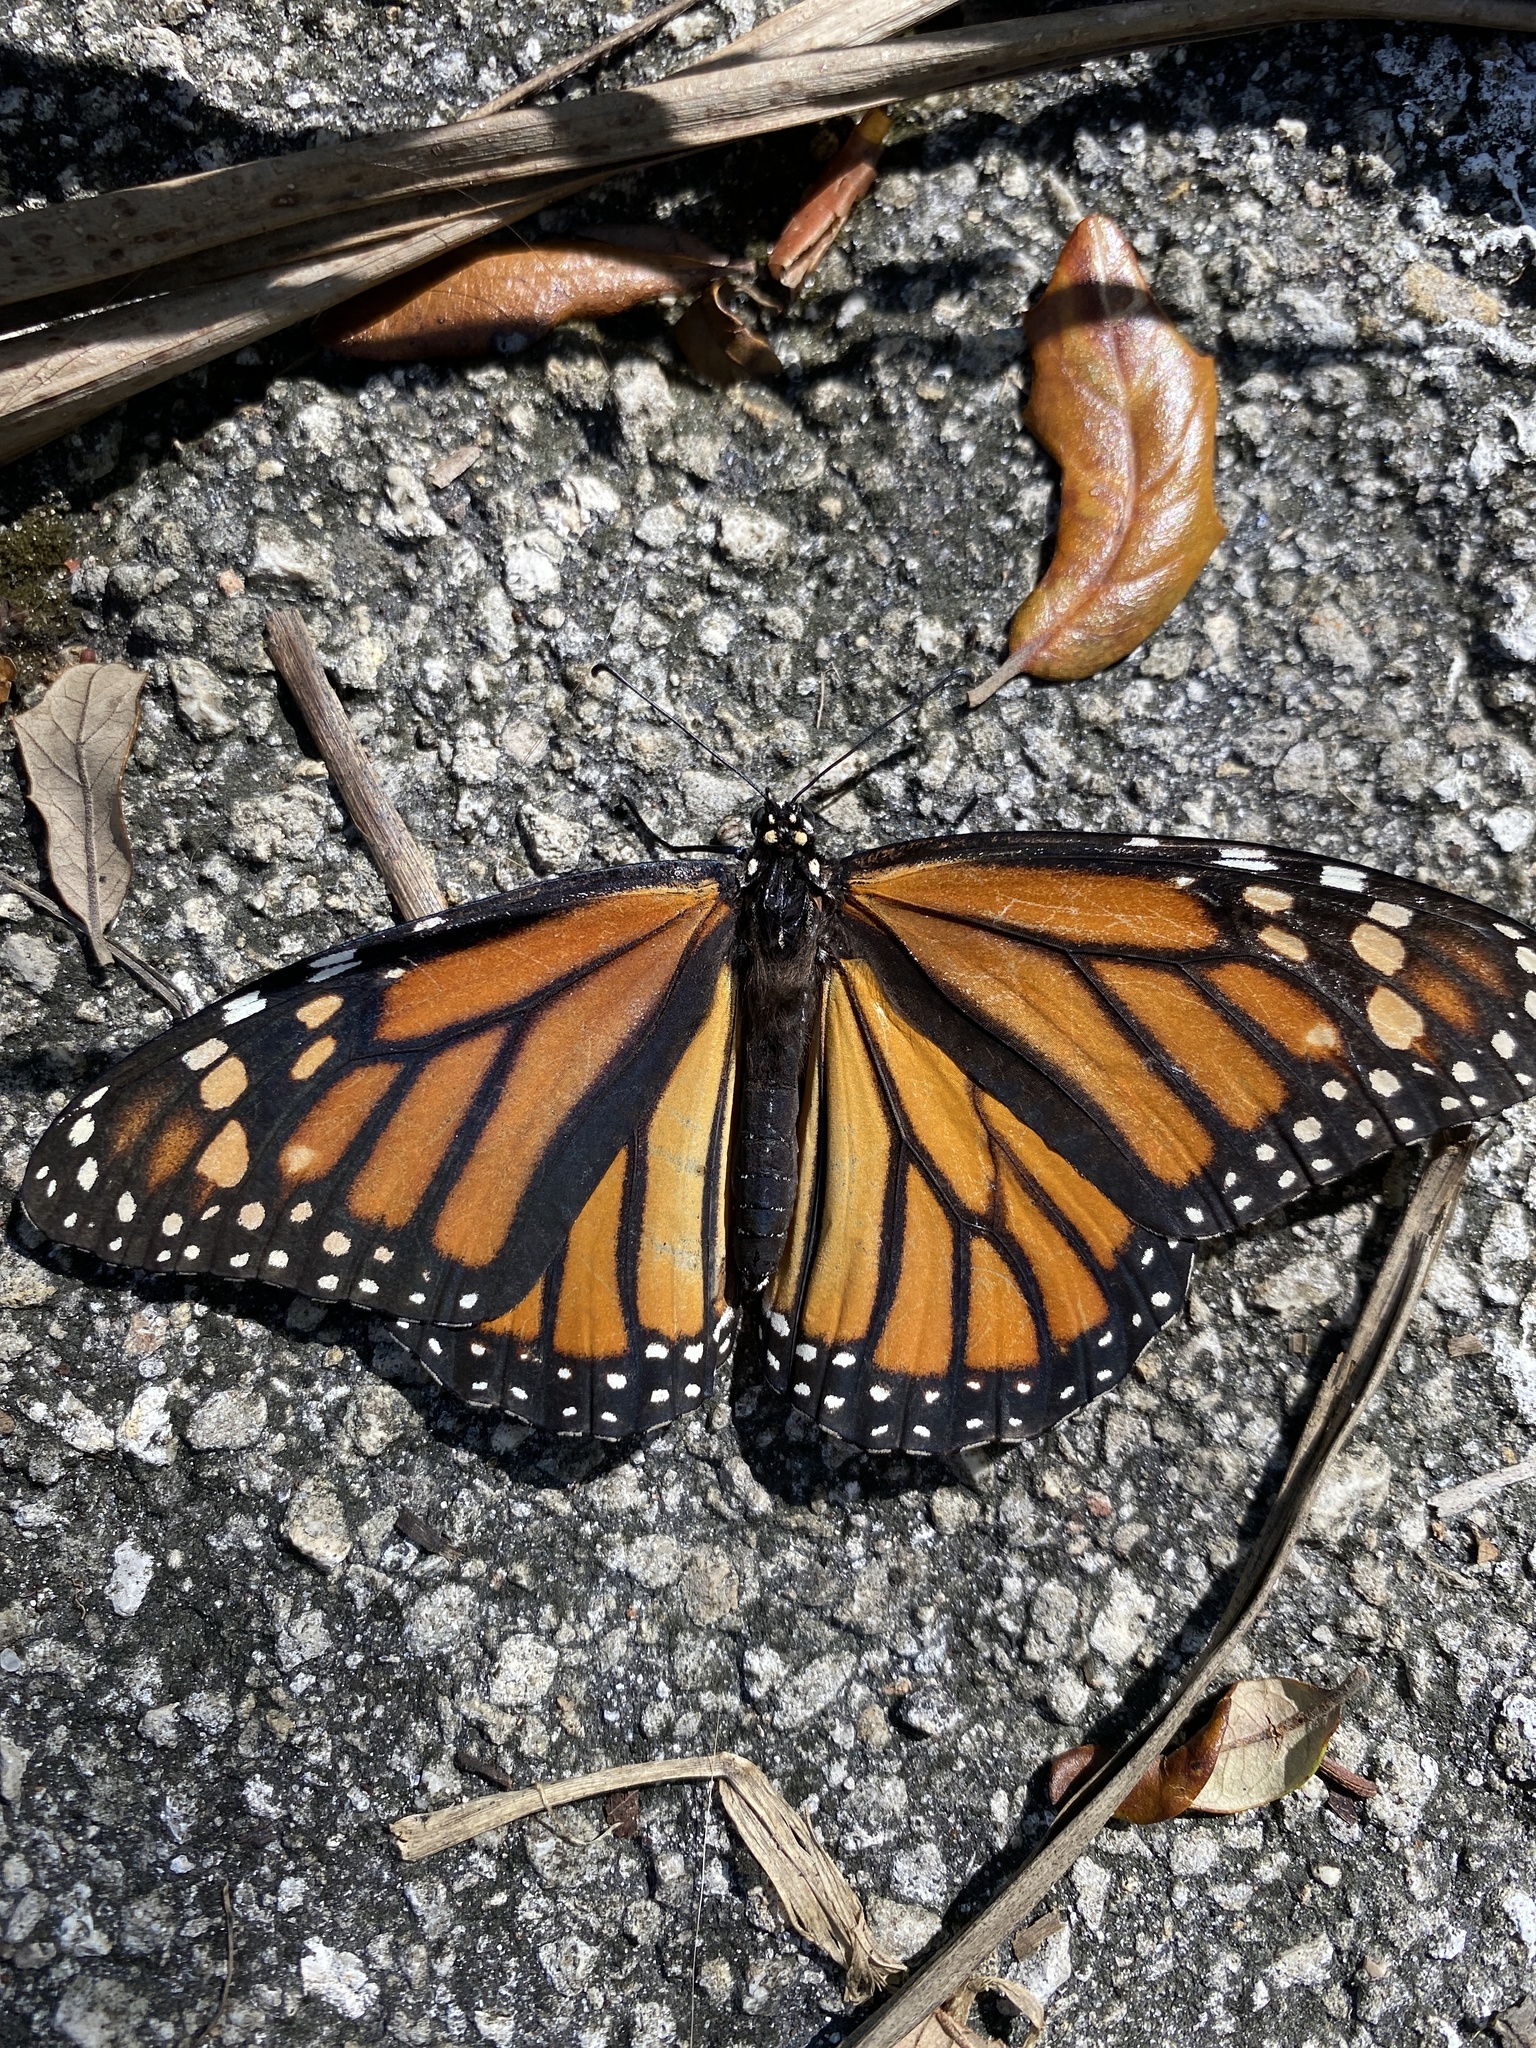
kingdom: Animalia
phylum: Arthropoda
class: Insecta
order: Lepidoptera
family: Nymphalidae
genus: Danaus
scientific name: Danaus plexippus
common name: Monarch
